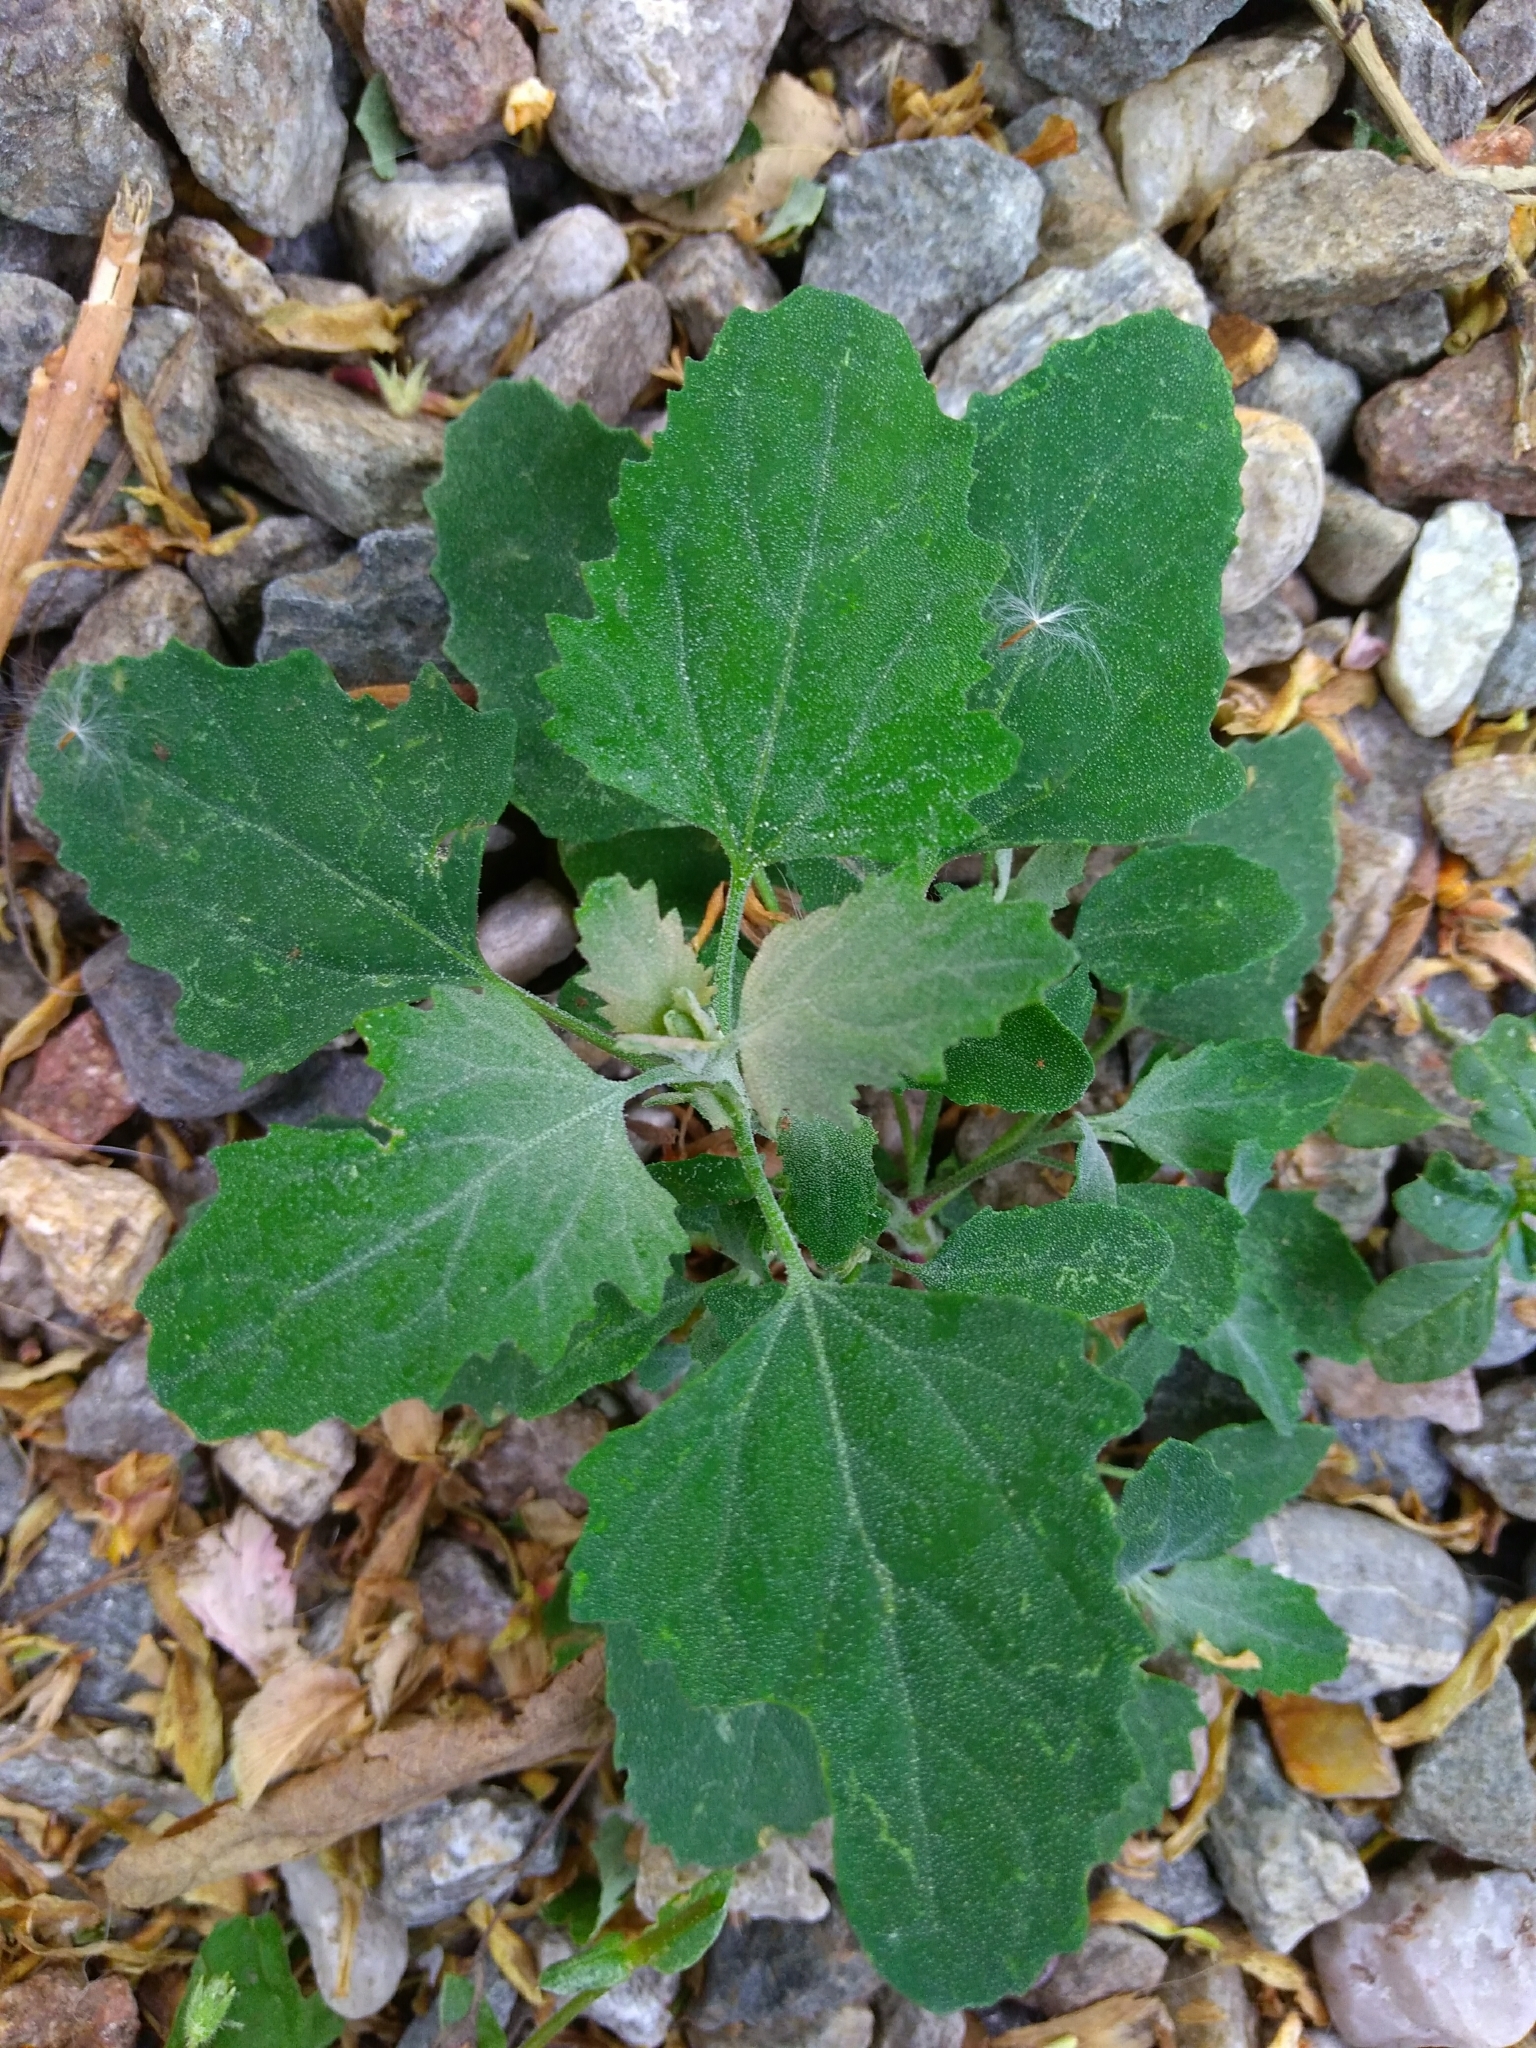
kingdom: Plantae
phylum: Tracheophyta
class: Magnoliopsida
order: Caryophyllales
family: Amaranthaceae
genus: Chenopodium
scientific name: Chenopodium album
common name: Fat-hen
